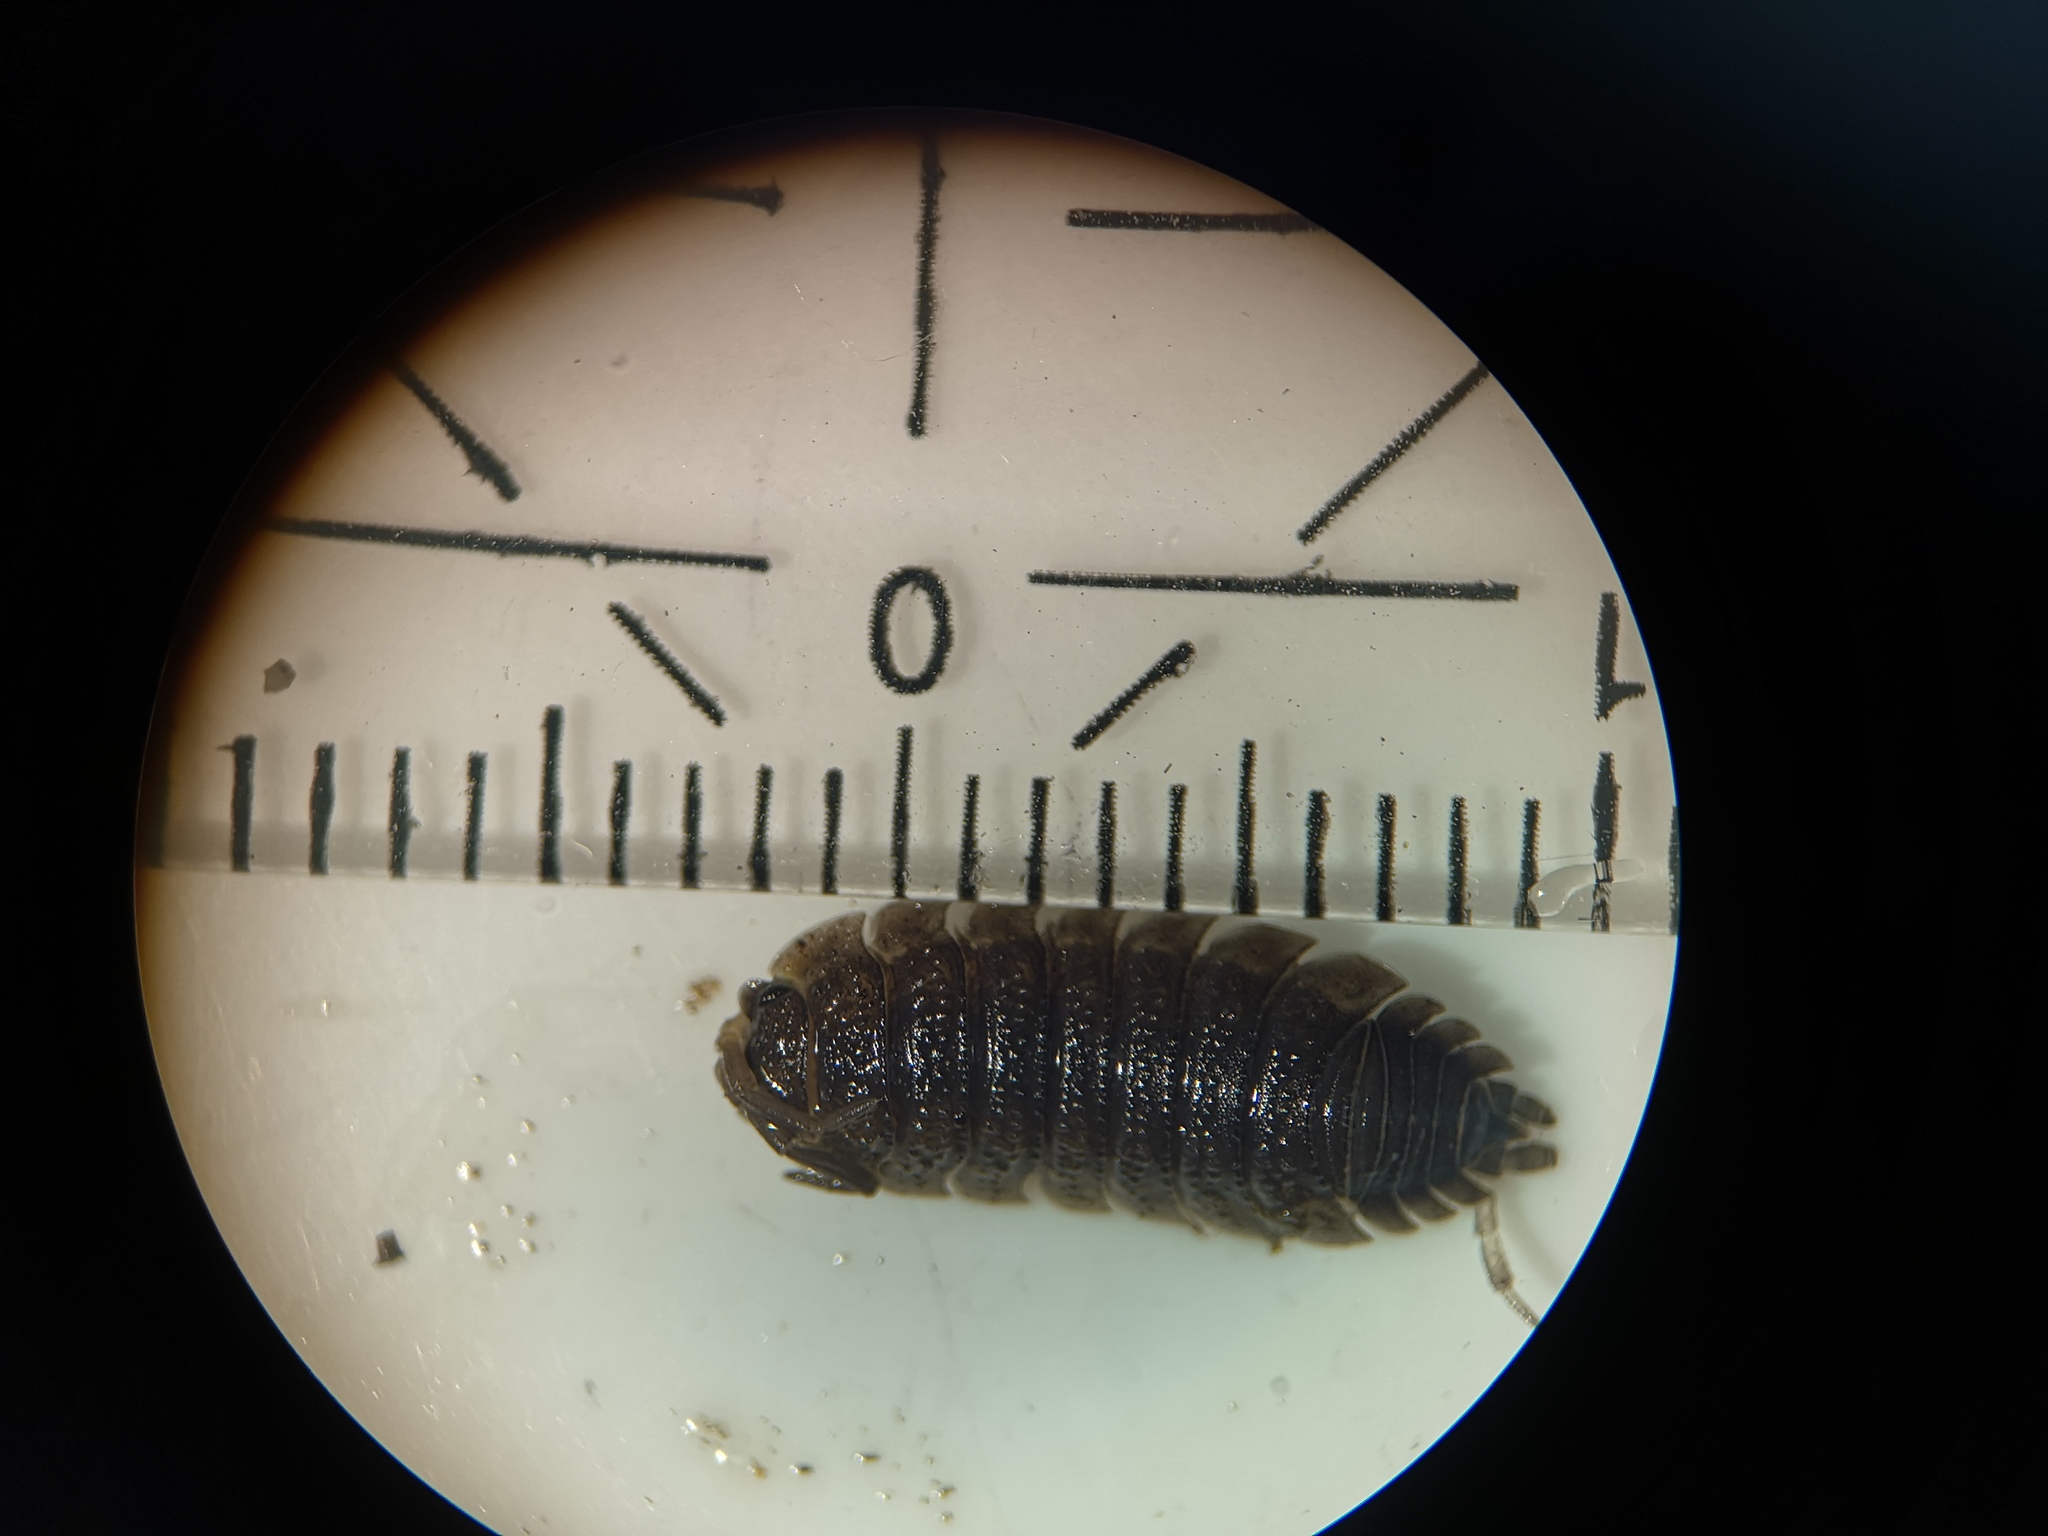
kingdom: Animalia
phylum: Arthropoda
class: Malacostraca
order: Isopoda
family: Porcellionidae
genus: Porcellio
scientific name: Porcellio scaber
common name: Common rough woodlouse
